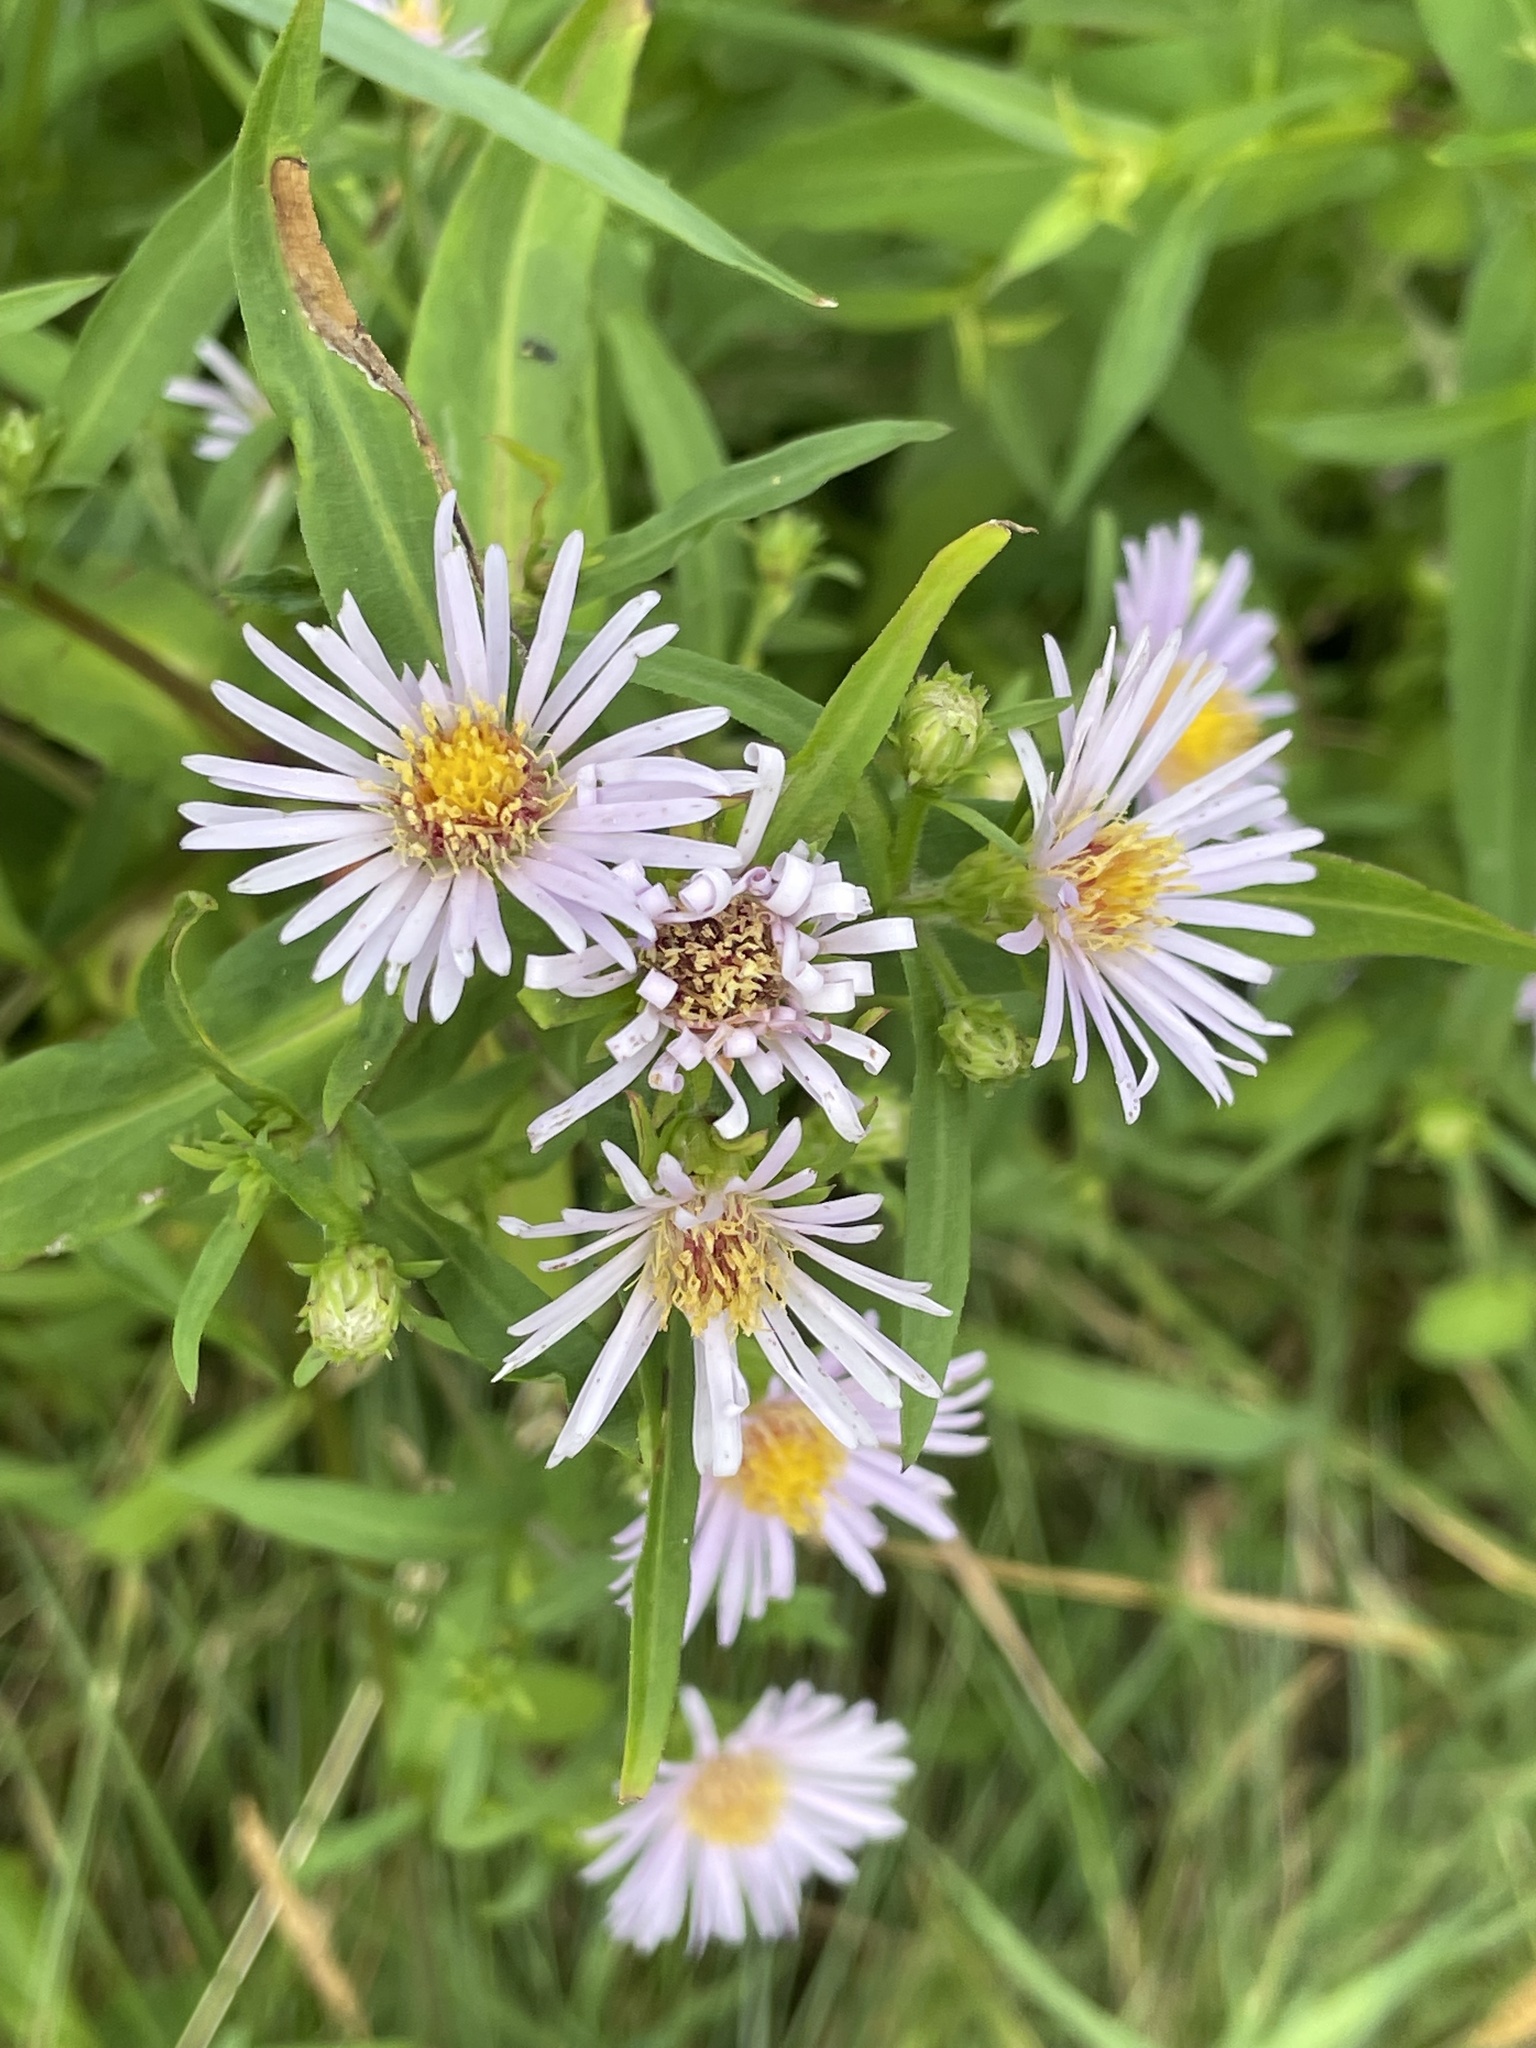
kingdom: Plantae
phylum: Tracheophyta
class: Magnoliopsida
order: Asterales
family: Asteraceae
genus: Symphyotrichum
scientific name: Symphyotrichum novi-belgii
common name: Michaelmas daisy
